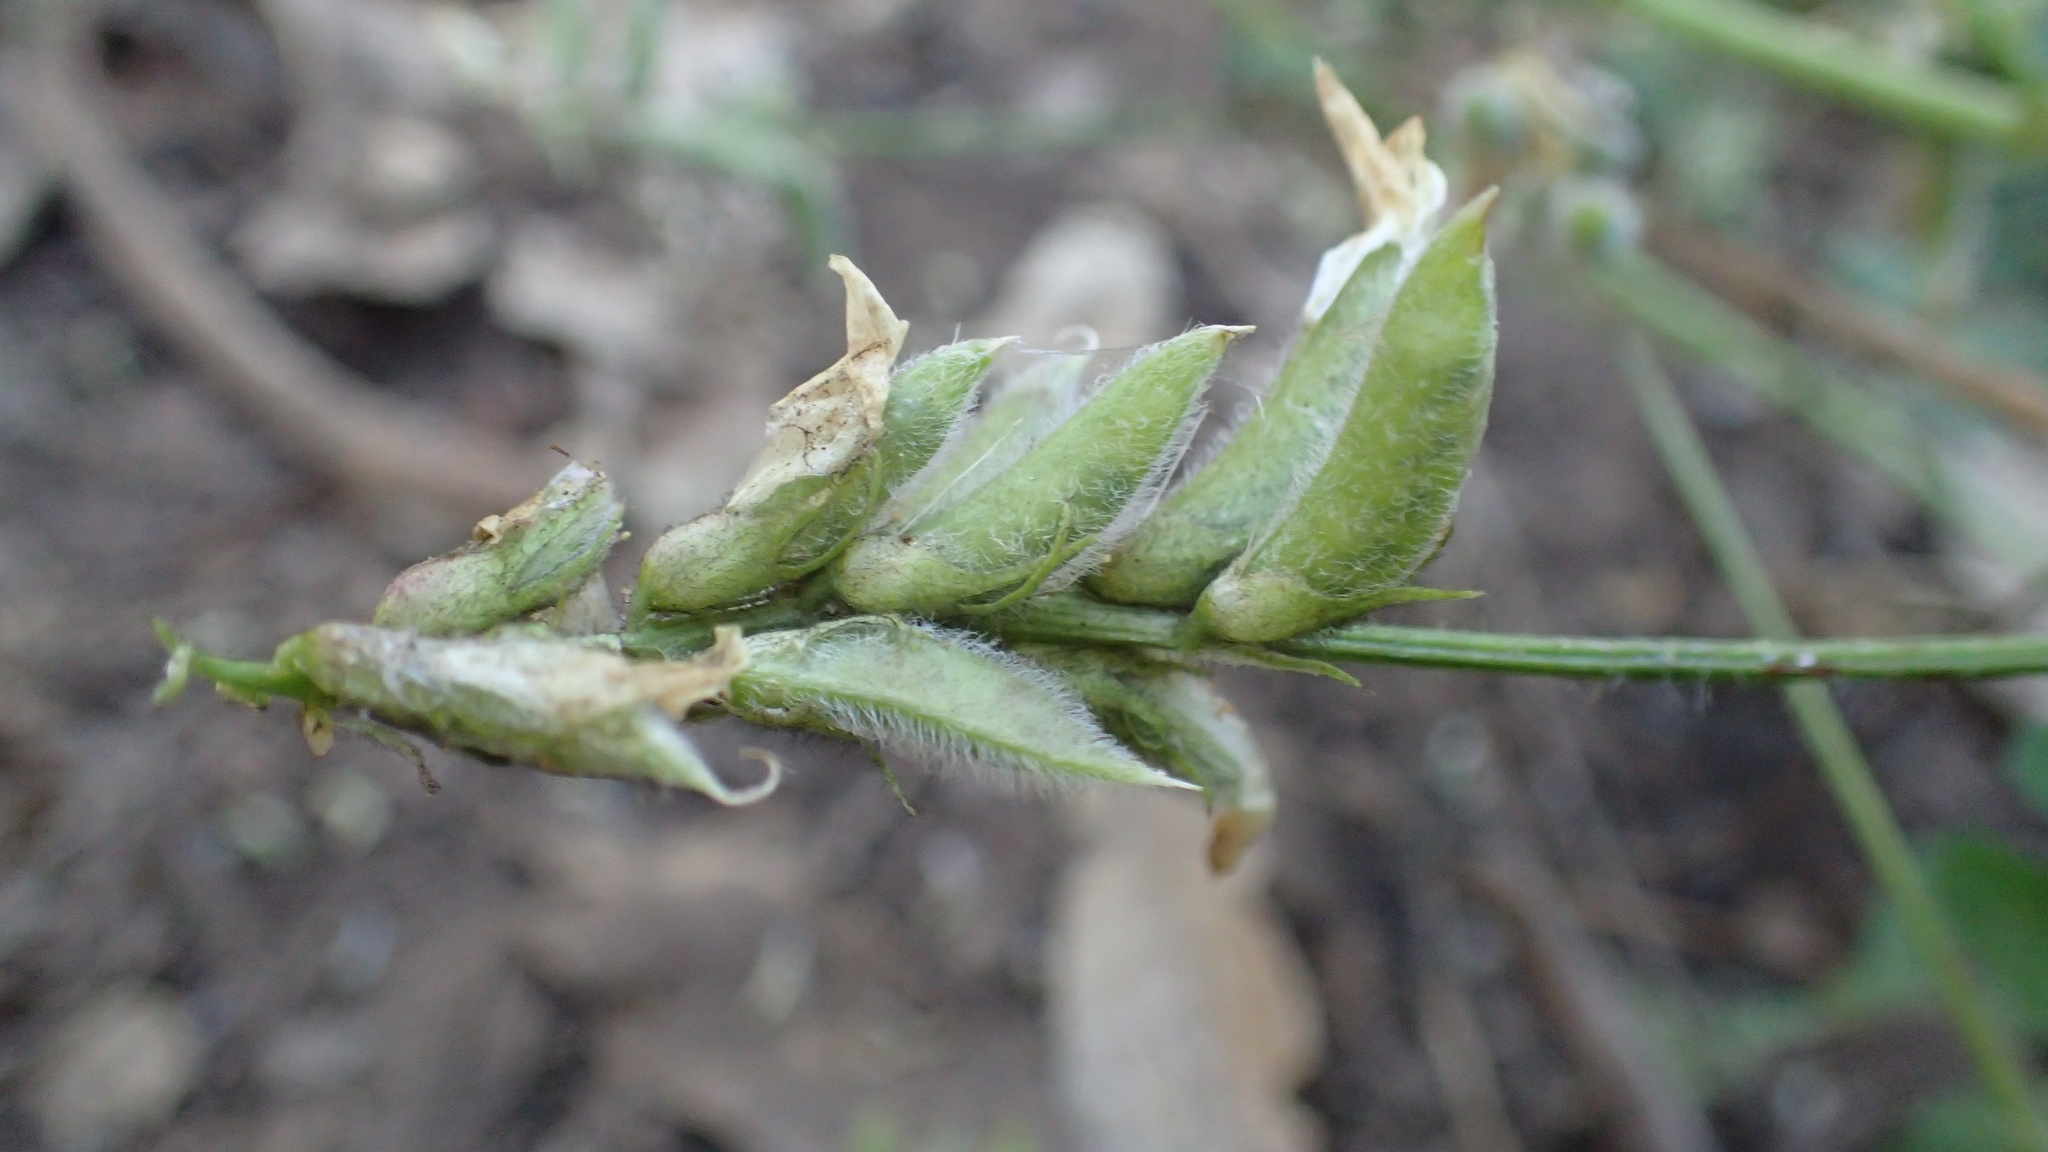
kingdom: Plantae
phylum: Tracheophyta
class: Magnoliopsida
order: Fabales
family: Fabaceae
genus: Astragalus
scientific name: Astragalus agnicidus
